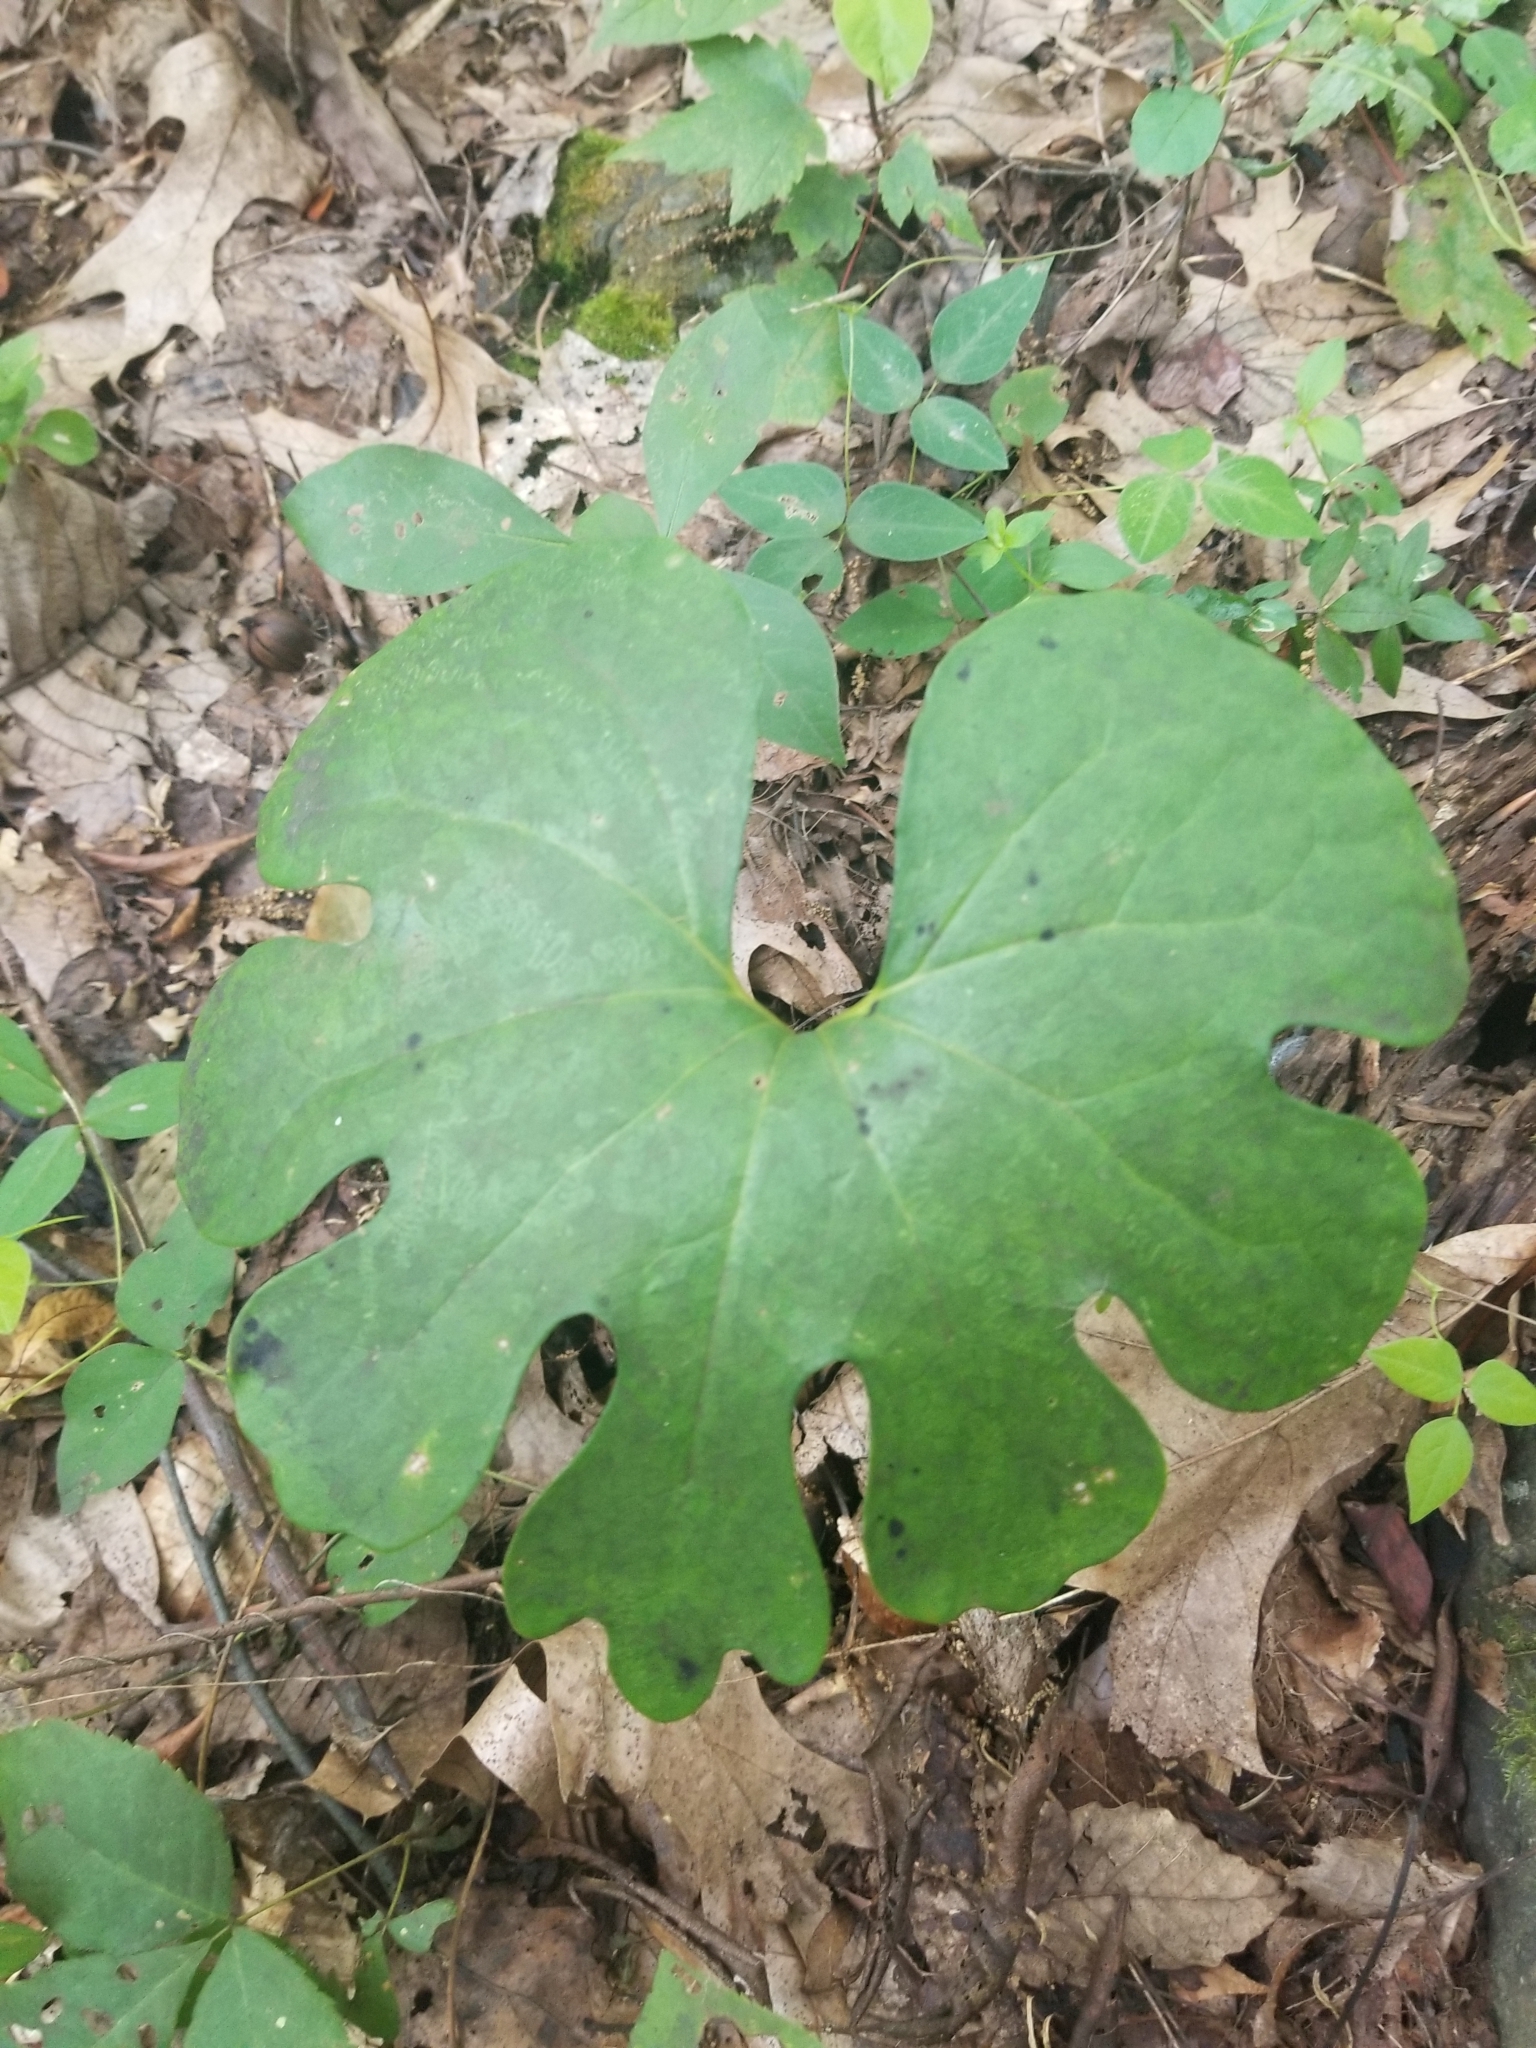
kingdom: Plantae
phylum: Tracheophyta
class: Magnoliopsida
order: Ranunculales
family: Papaveraceae
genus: Sanguinaria
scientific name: Sanguinaria canadensis
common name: Bloodroot
